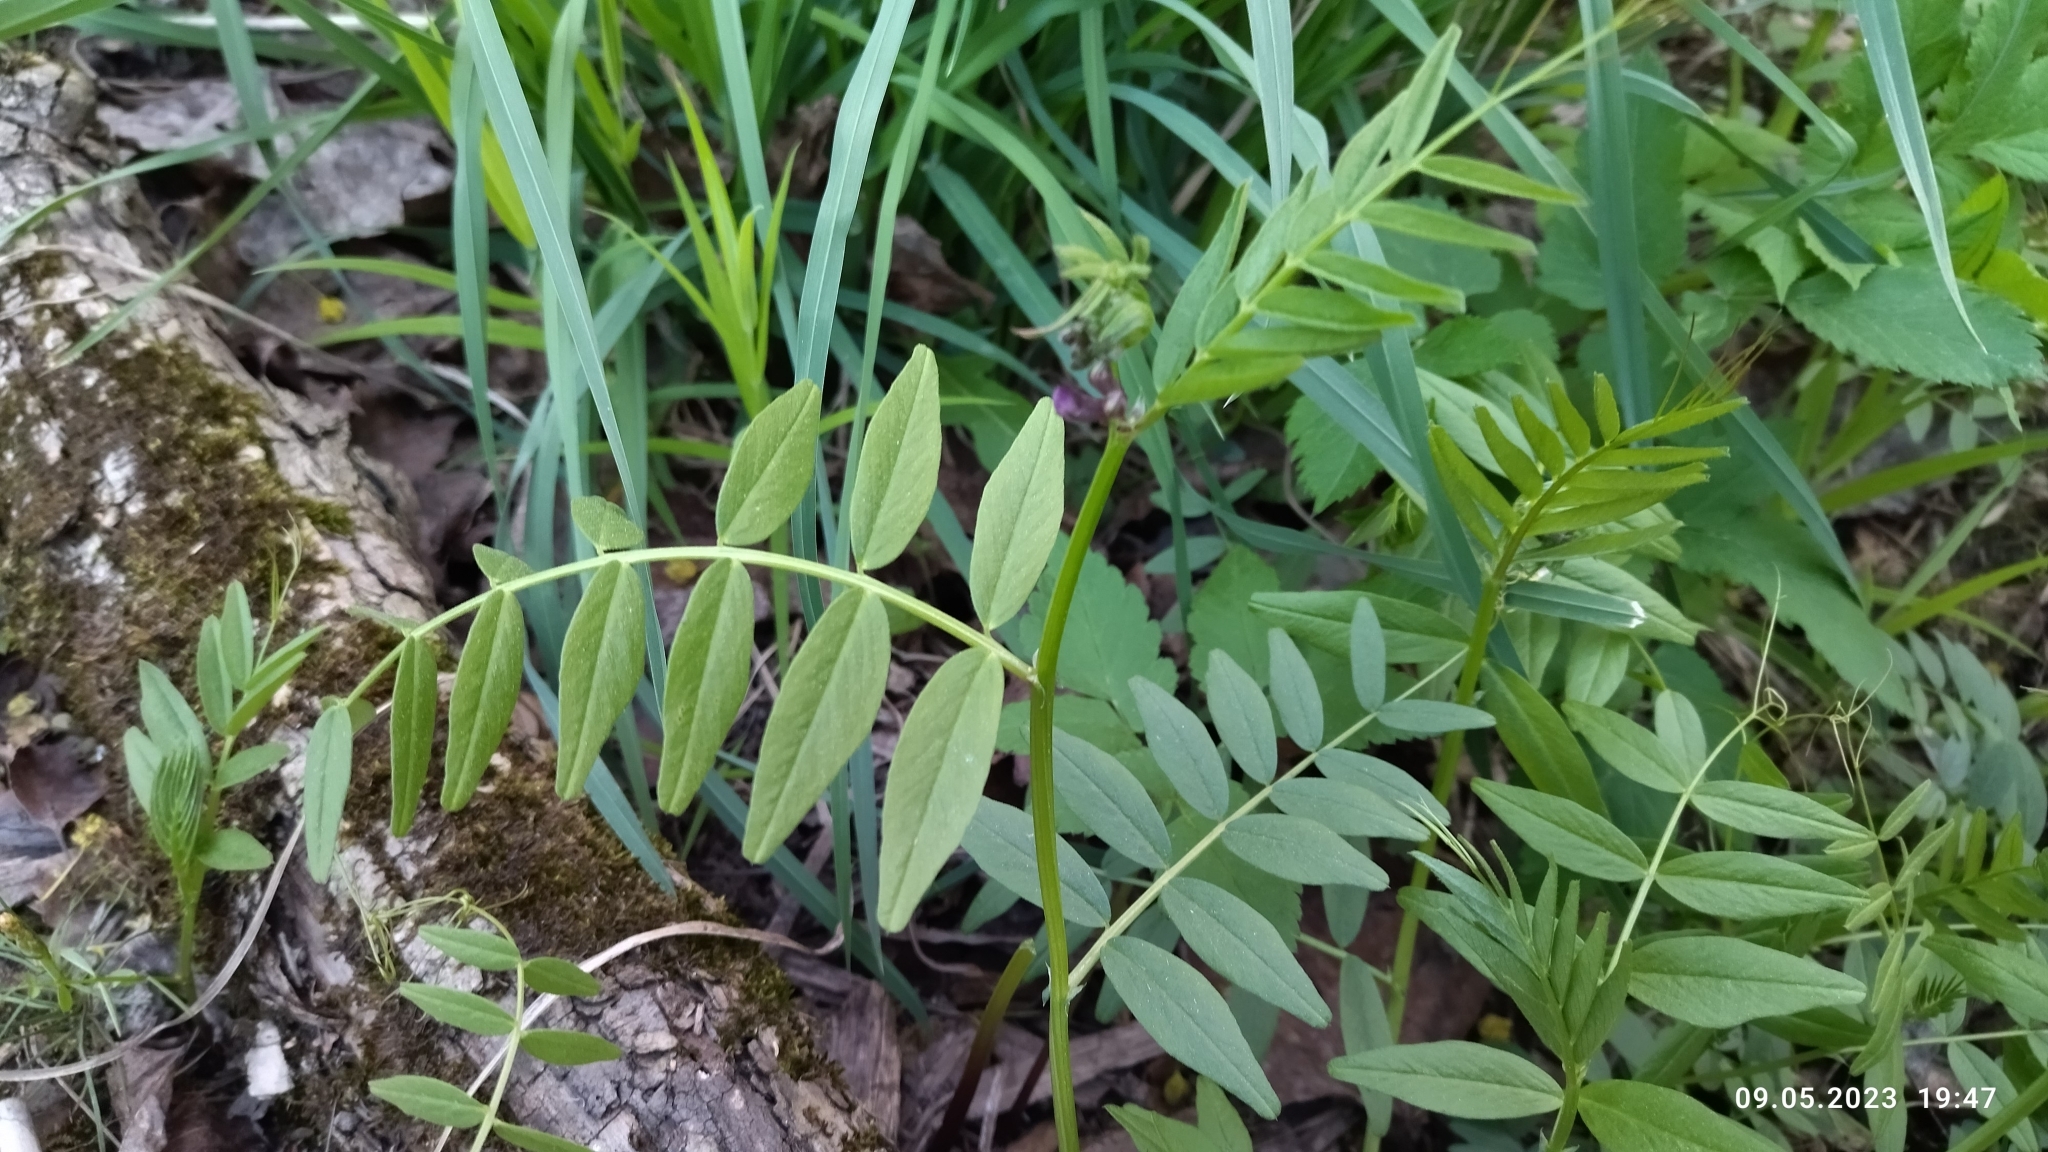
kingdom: Plantae
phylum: Tracheophyta
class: Magnoliopsida
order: Fabales
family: Fabaceae
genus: Vicia
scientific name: Vicia sepium
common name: Bush vetch
